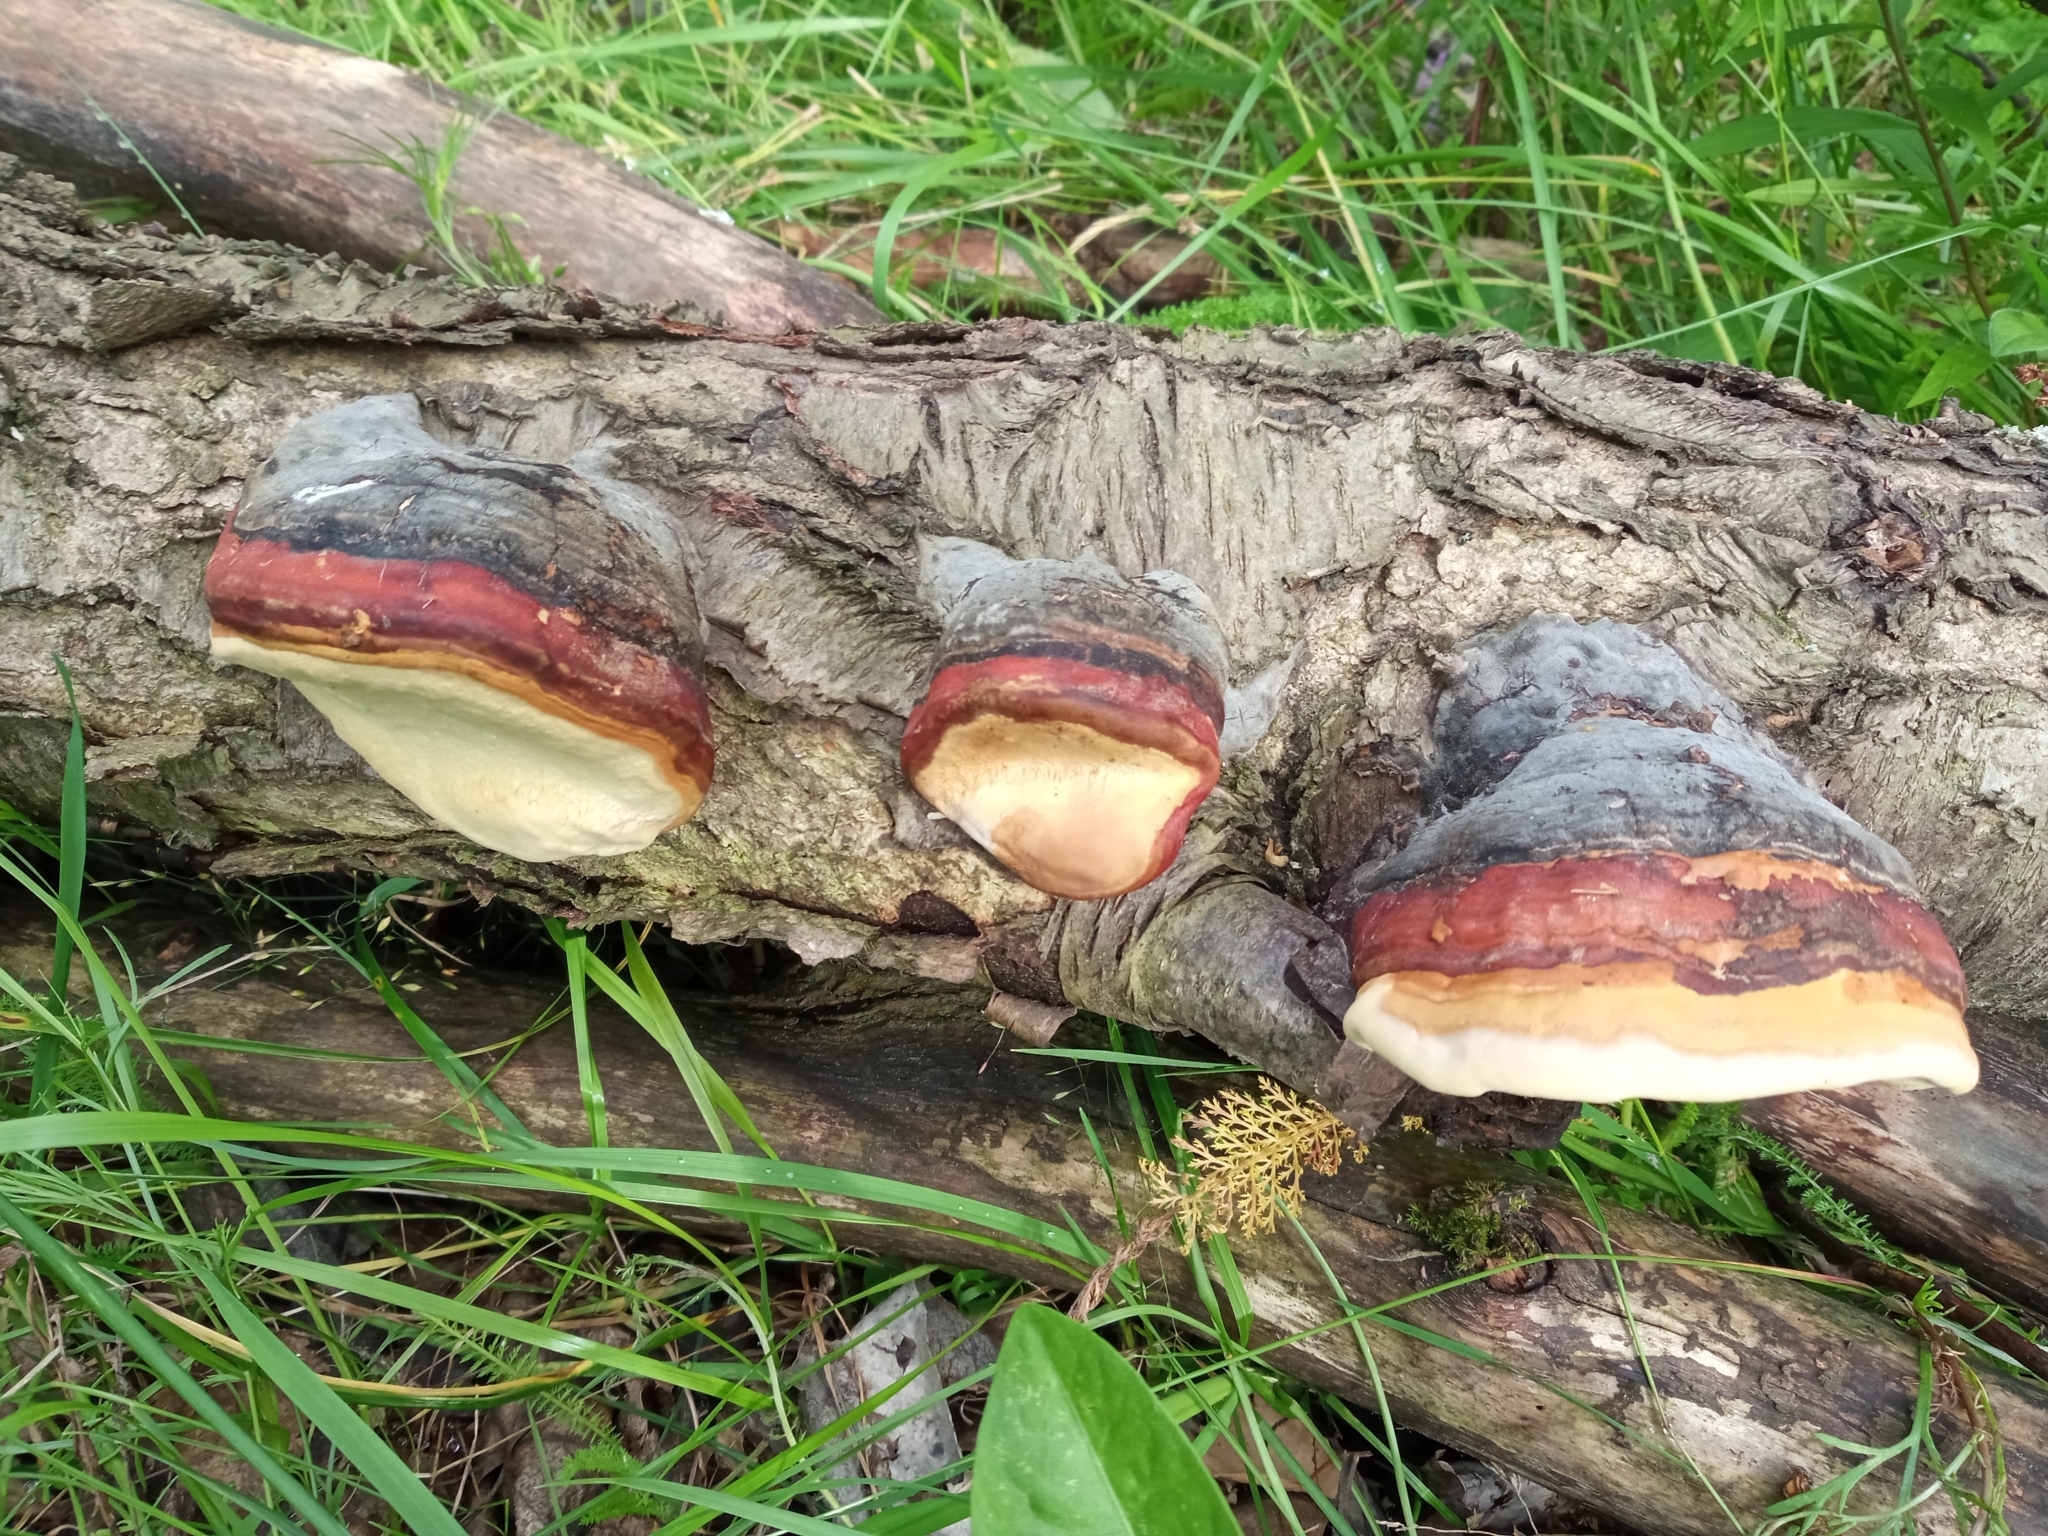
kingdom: Fungi
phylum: Basidiomycota
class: Agaricomycetes
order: Polyporales
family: Fomitopsidaceae
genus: Fomitopsis
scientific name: Fomitopsis pinicola
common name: Red-belted bracket
